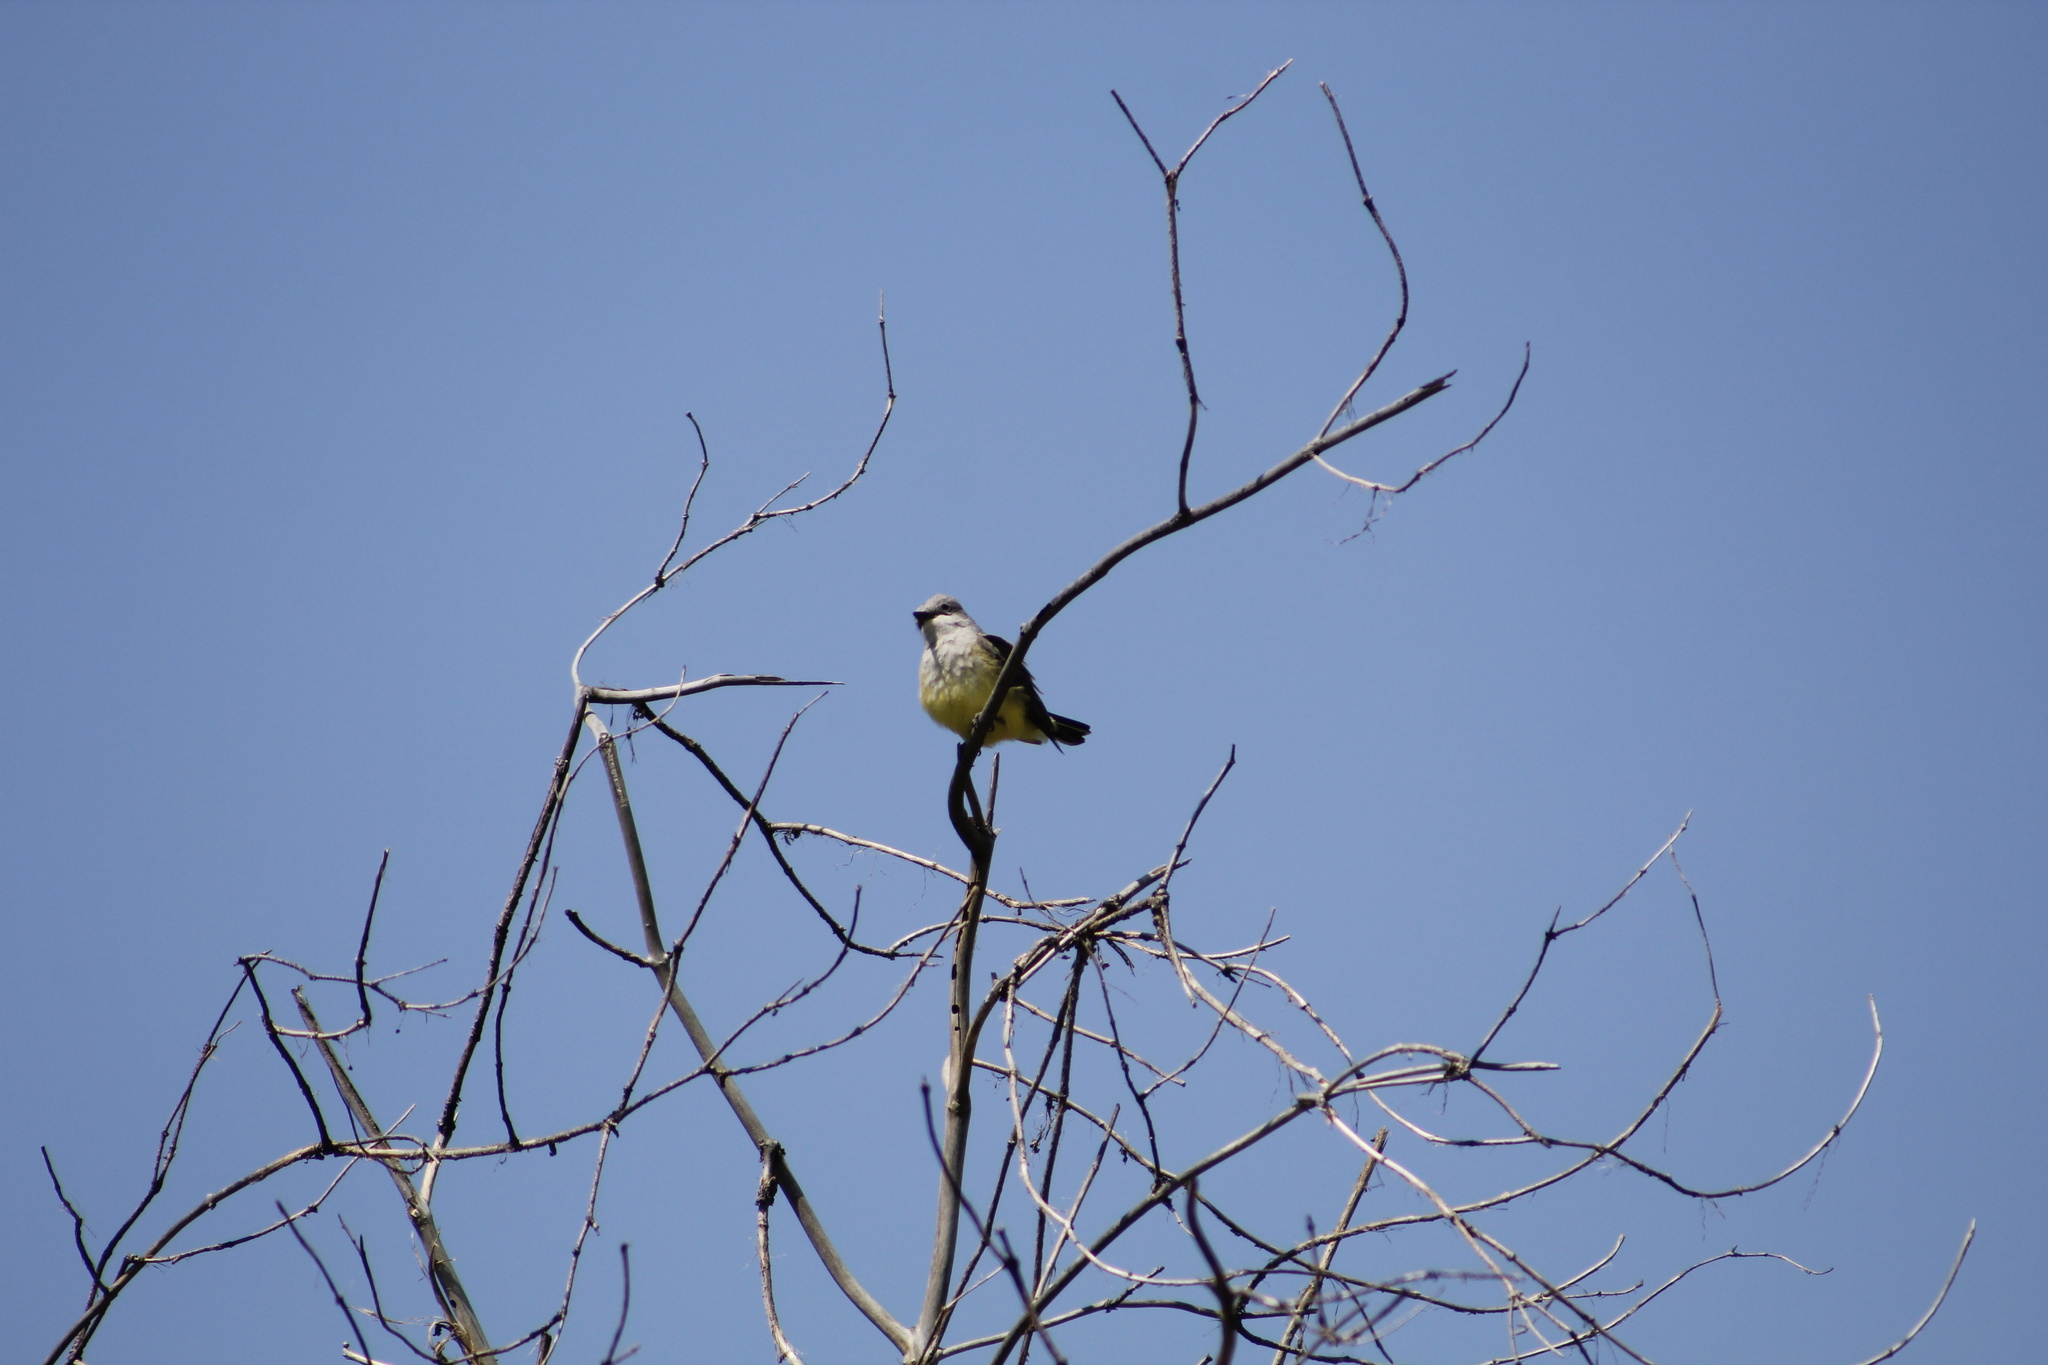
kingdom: Animalia
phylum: Chordata
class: Aves
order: Passeriformes
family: Tyrannidae
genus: Tyrannus
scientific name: Tyrannus verticalis
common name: Western kingbird
